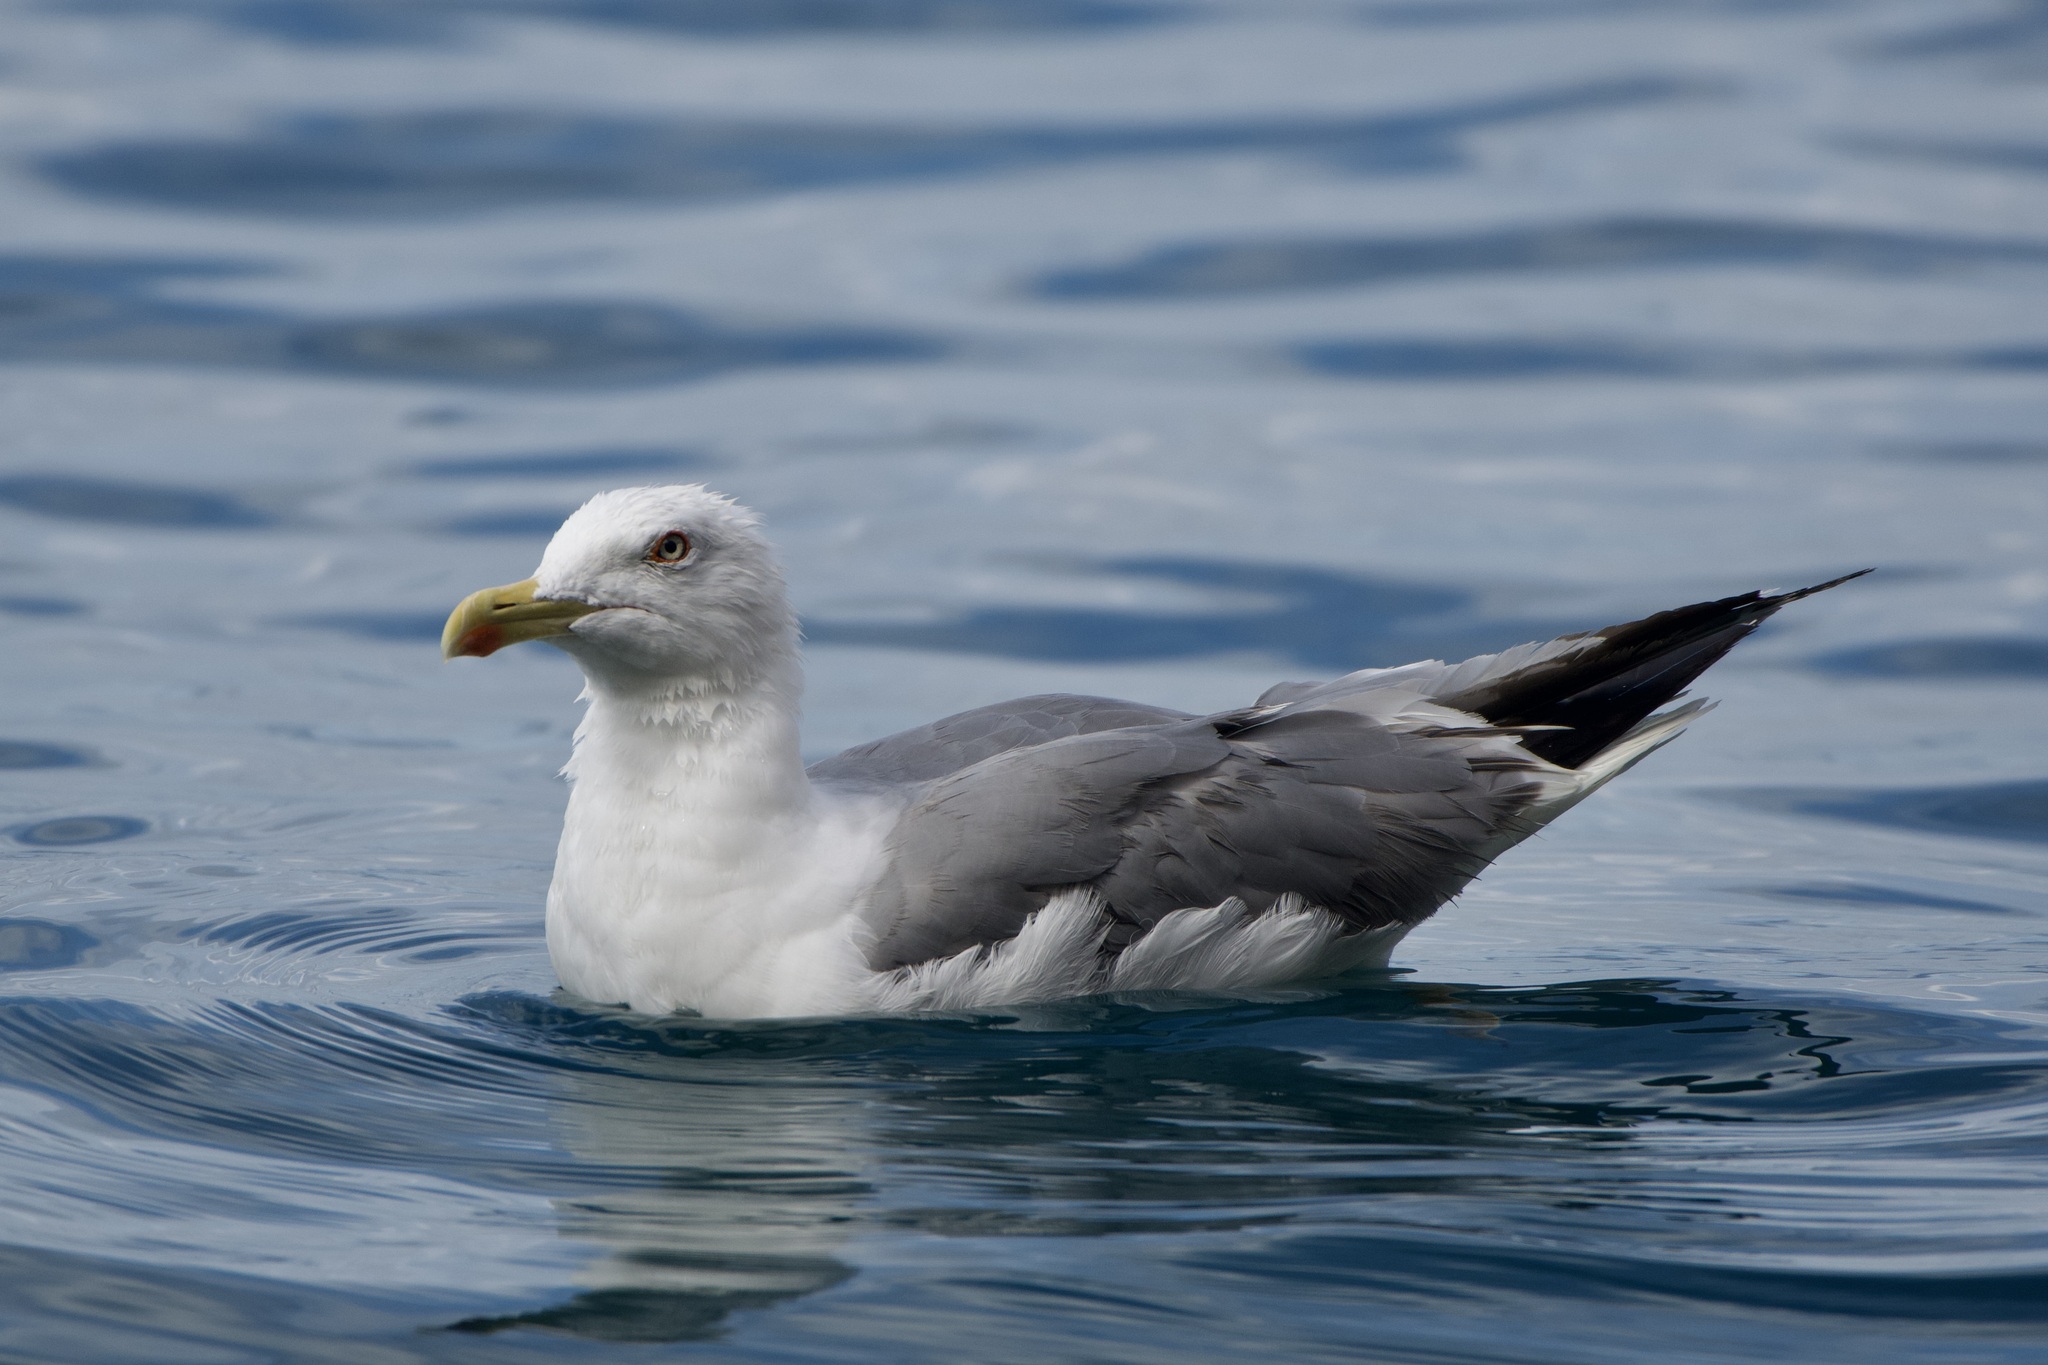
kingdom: Animalia
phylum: Chordata
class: Aves
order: Charadriiformes
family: Laridae
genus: Larus
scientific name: Larus michahellis
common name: Yellow-legged gull
